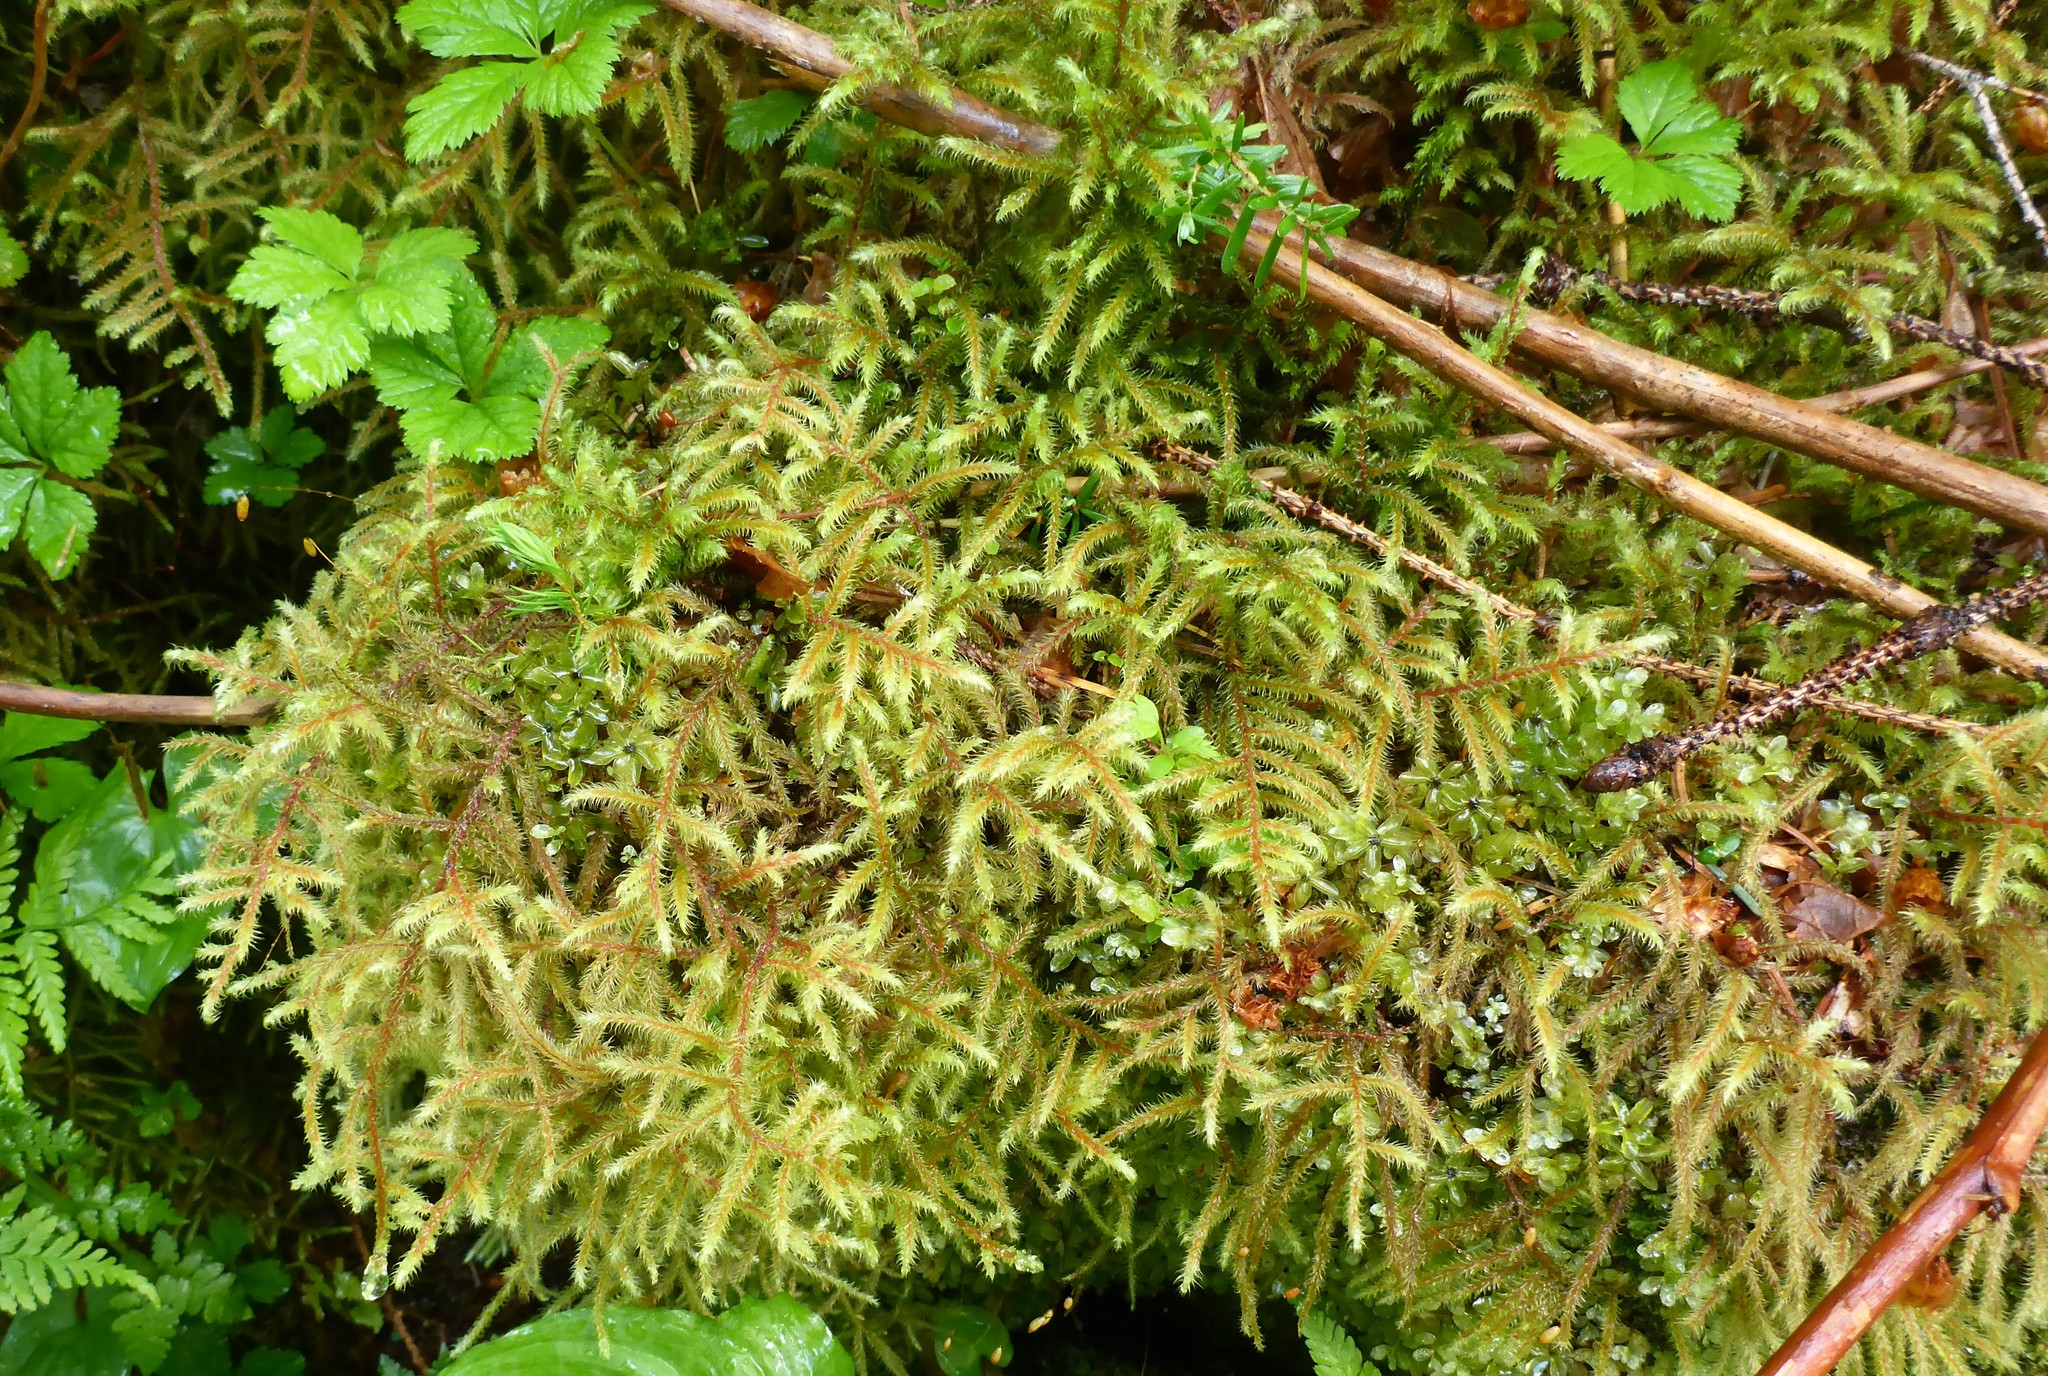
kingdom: Plantae
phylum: Bryophyta
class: Bryopsida
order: Hypnales
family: Hylocomiaceae
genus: Rhytidiadelphus
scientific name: Rhytidiadelphus loreus
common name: Lanky moss
